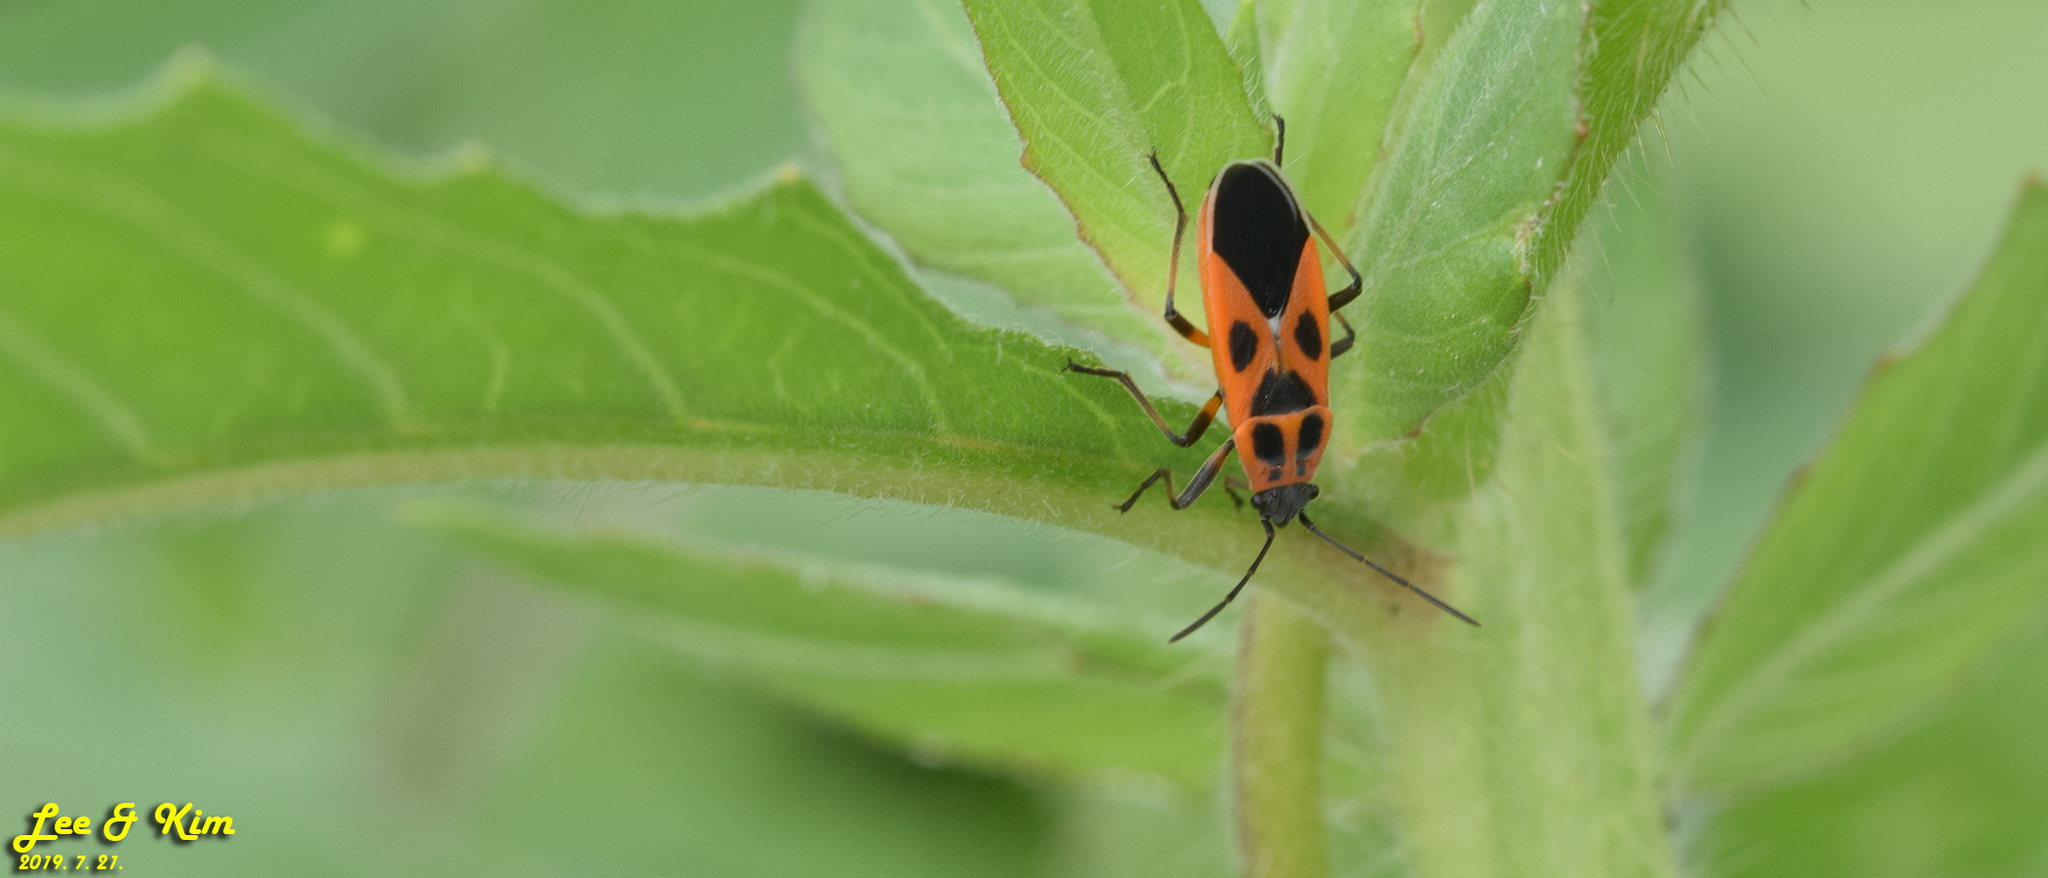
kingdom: Animalia
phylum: Arthropoda
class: Insecta
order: Hemiptera
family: Lygaeidae
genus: Tropidothorax
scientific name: Tropidothorax cruciger
